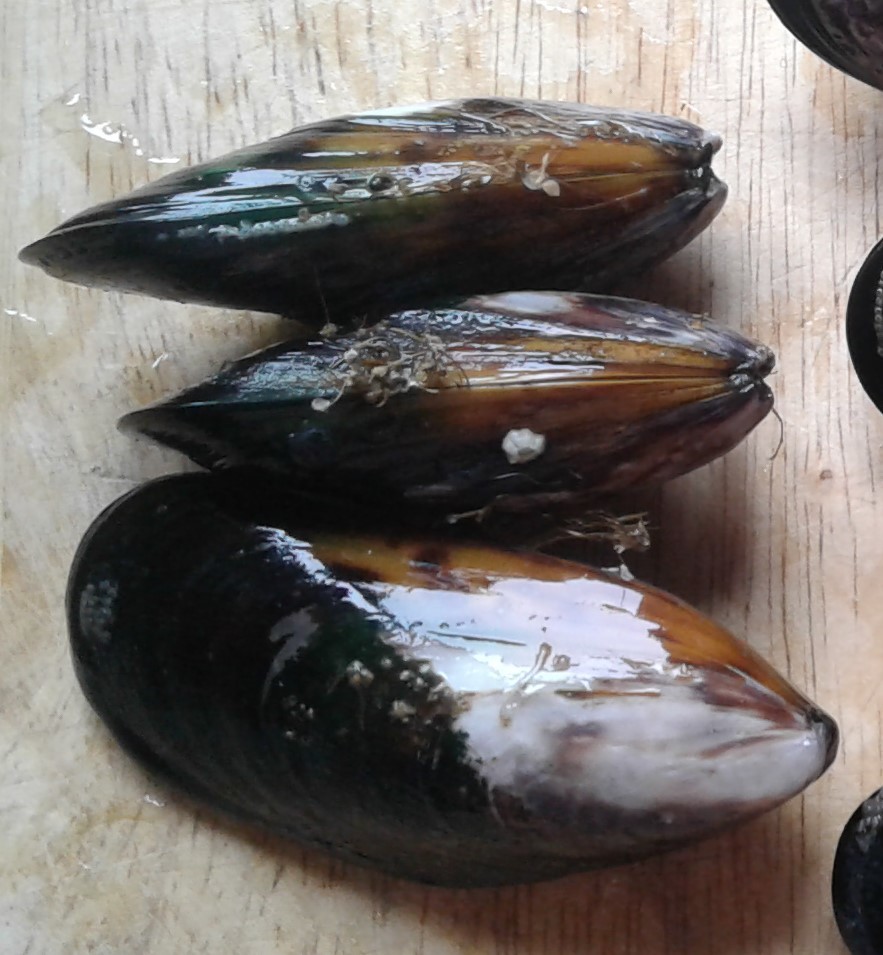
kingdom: Animalia
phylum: Mollusca
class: Bivalvia
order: Mytilida
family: Mytilidae
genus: Perna
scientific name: Perna canaliculus
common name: New zealand greenshelltm
